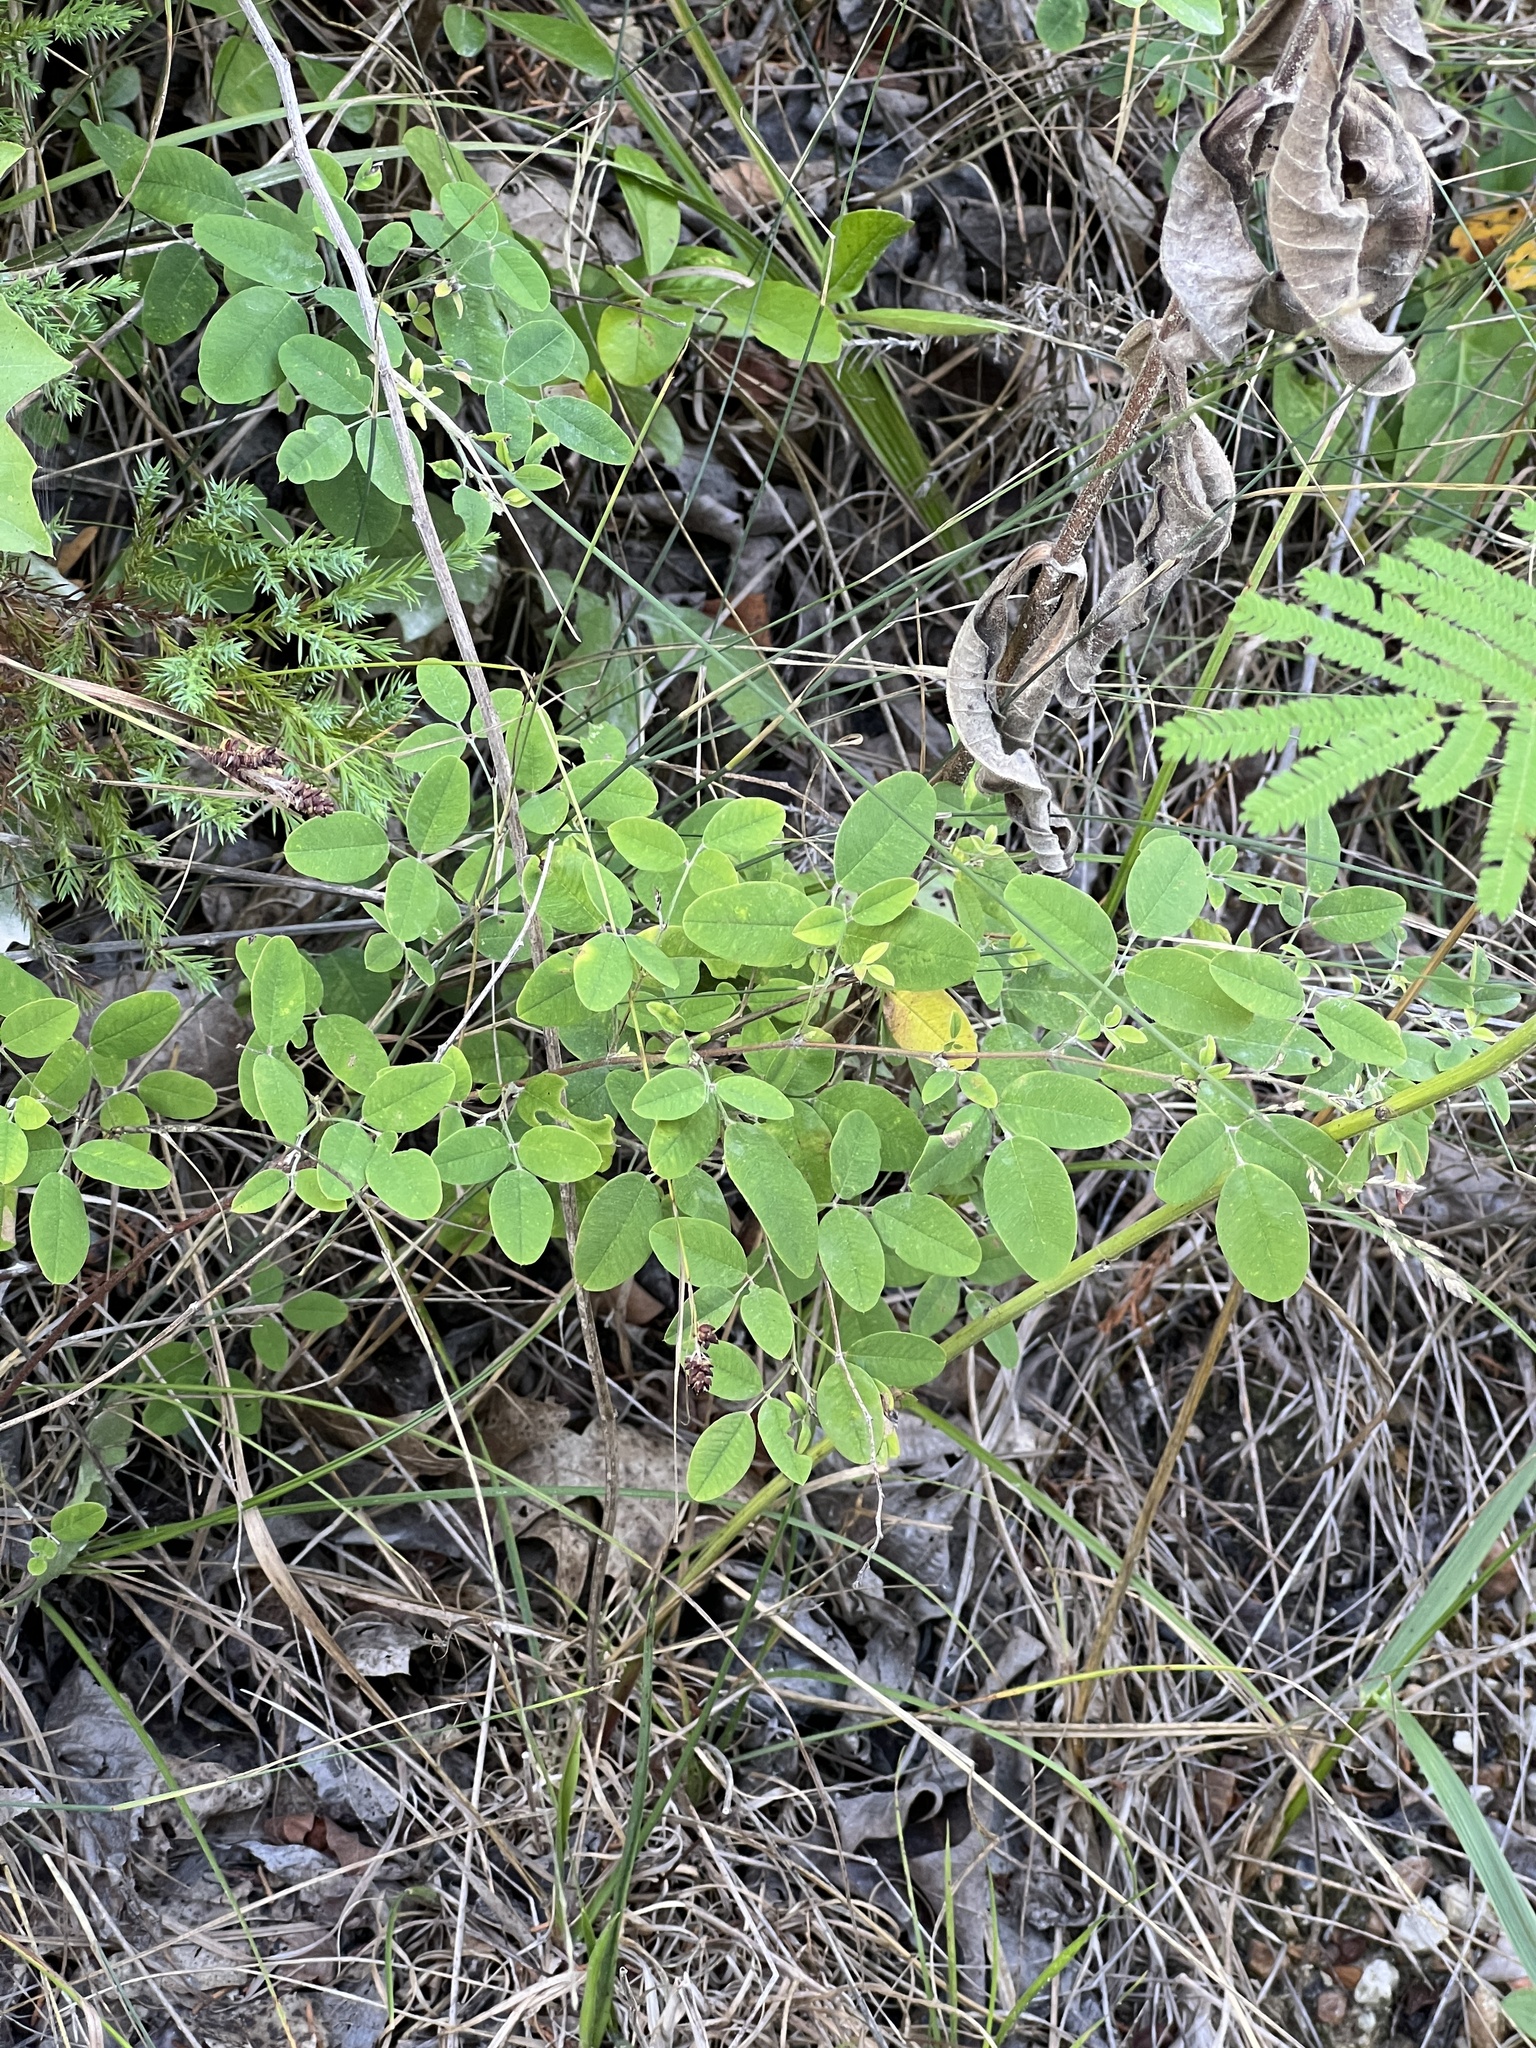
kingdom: Plantae
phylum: Tracheophyta
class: Magnoliopsida
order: Fabales
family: Fabaceae
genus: Lespedeza
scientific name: Lespedeza
